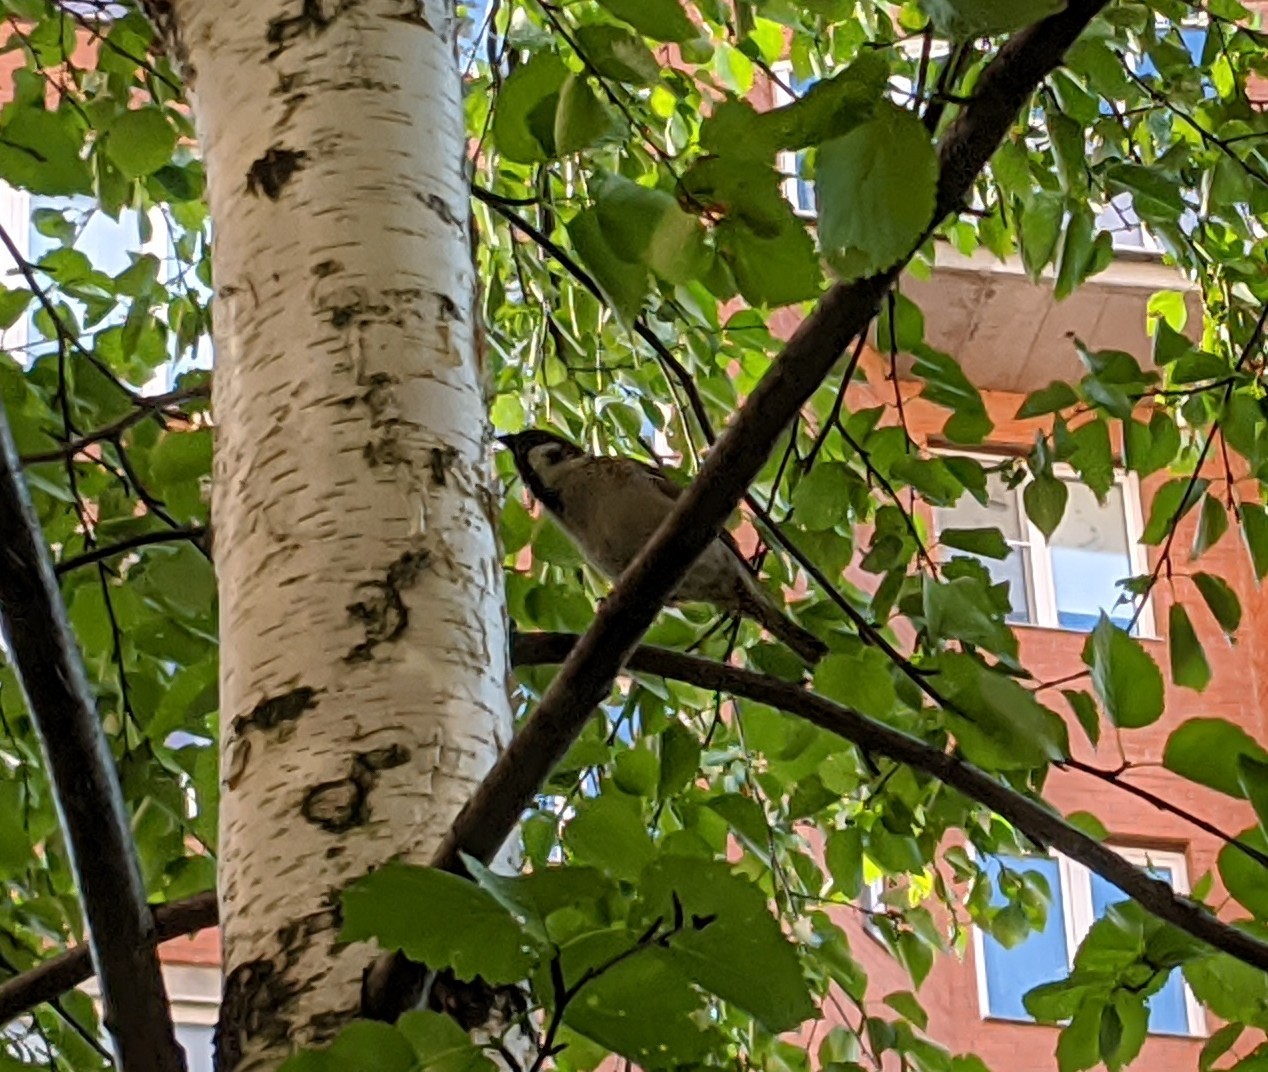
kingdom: Animalia
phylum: Chordata
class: Aves
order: Passeriformes
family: Passeridae
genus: Passer
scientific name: Passer montanus
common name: Eurasian tree sparrow
